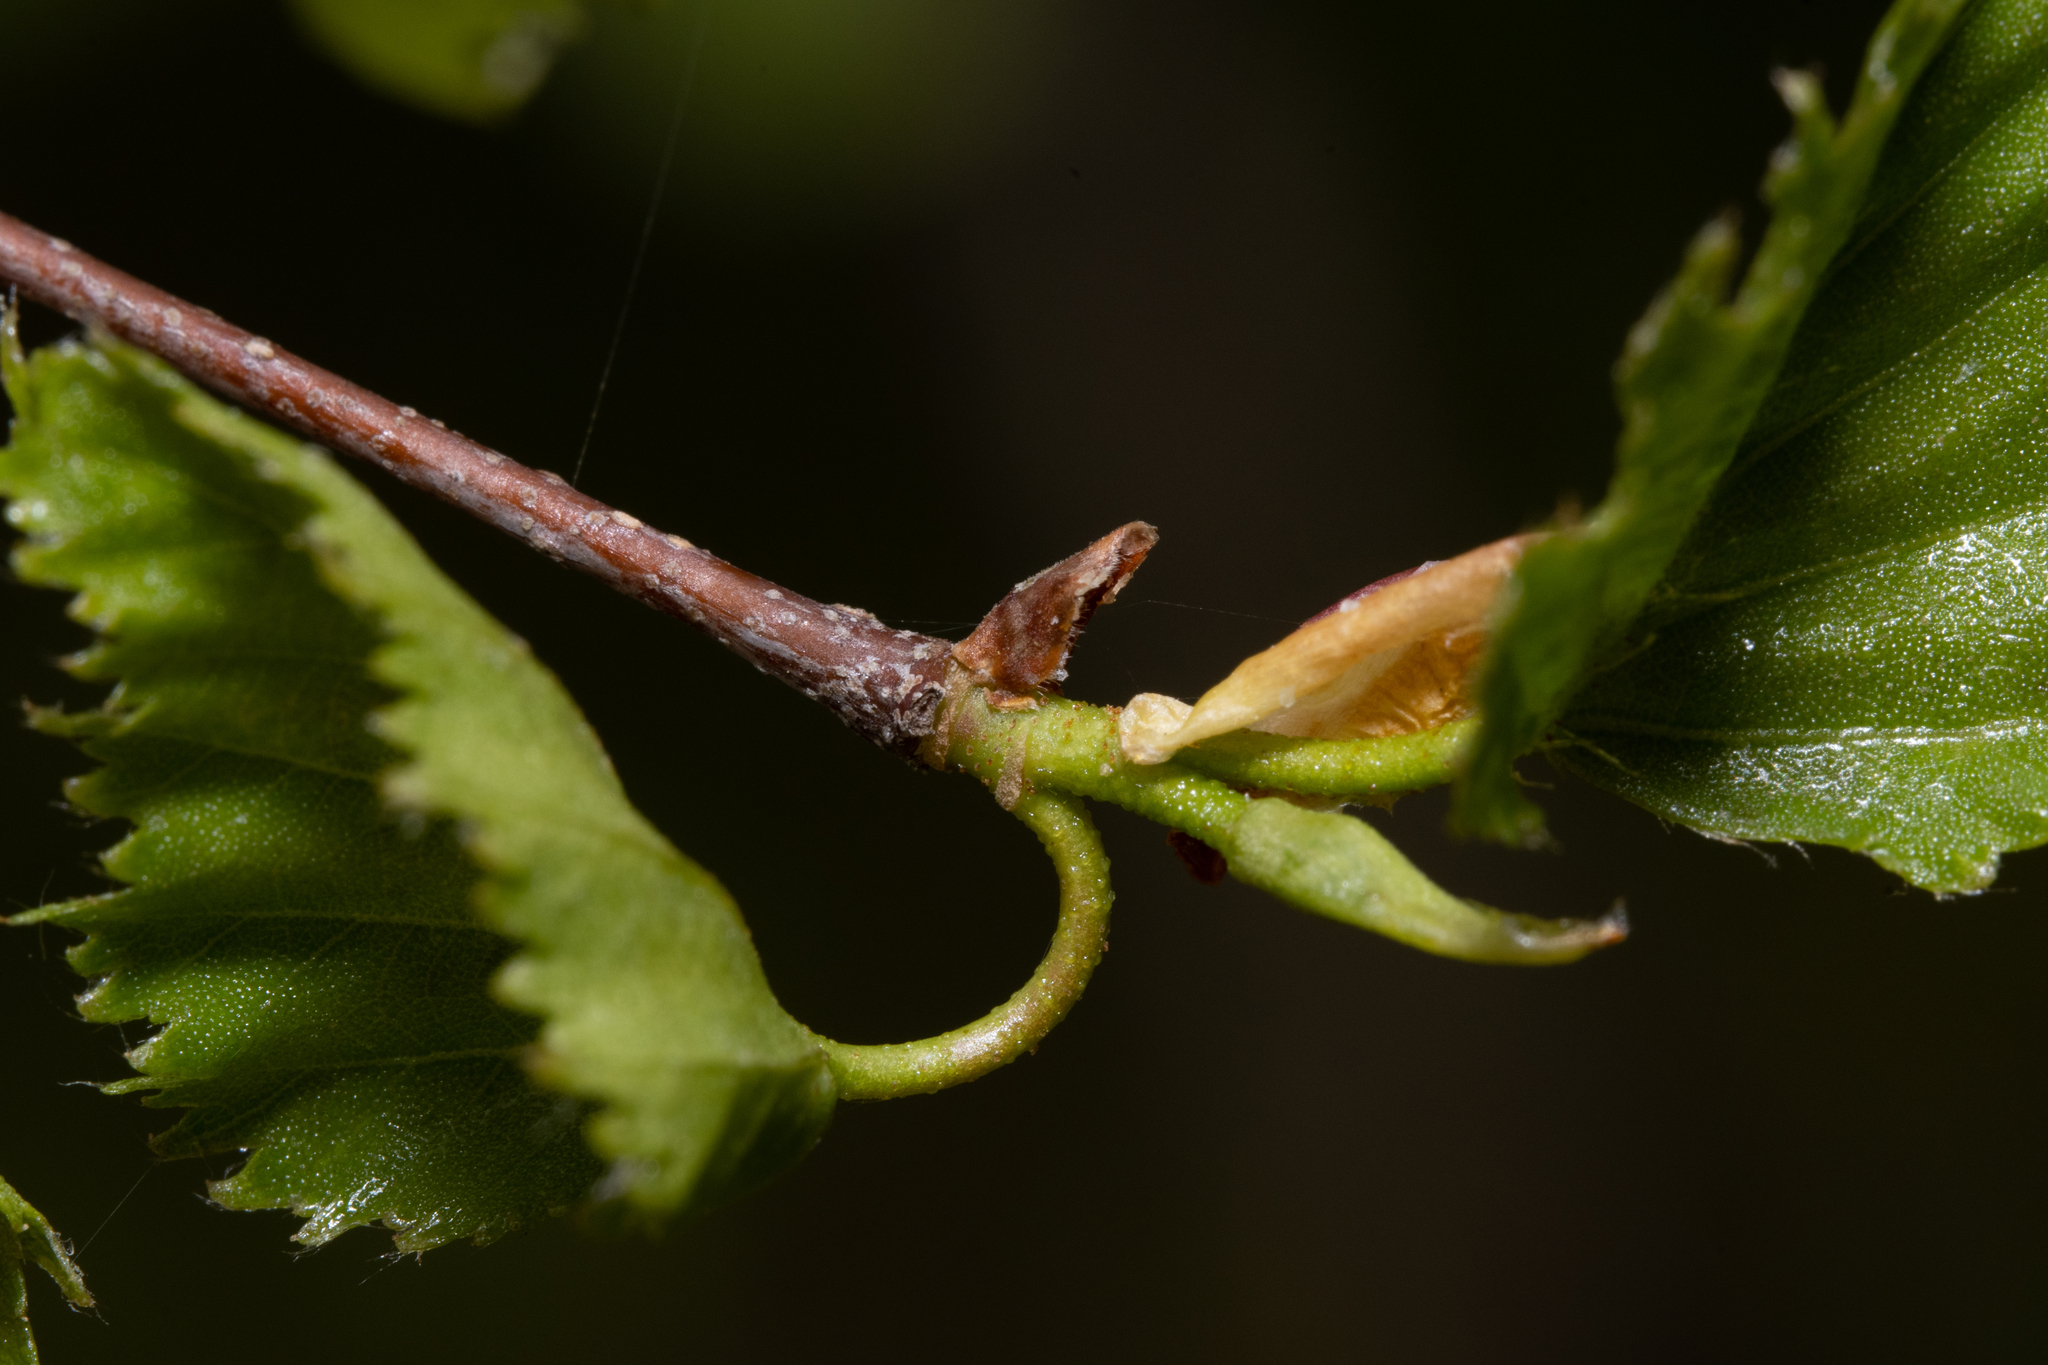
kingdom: Plantae
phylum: Tracheophyta
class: Magnoliopsida
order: Fagales
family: Betulaceae
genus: Betula
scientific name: Betula pendula
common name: Silver birch
